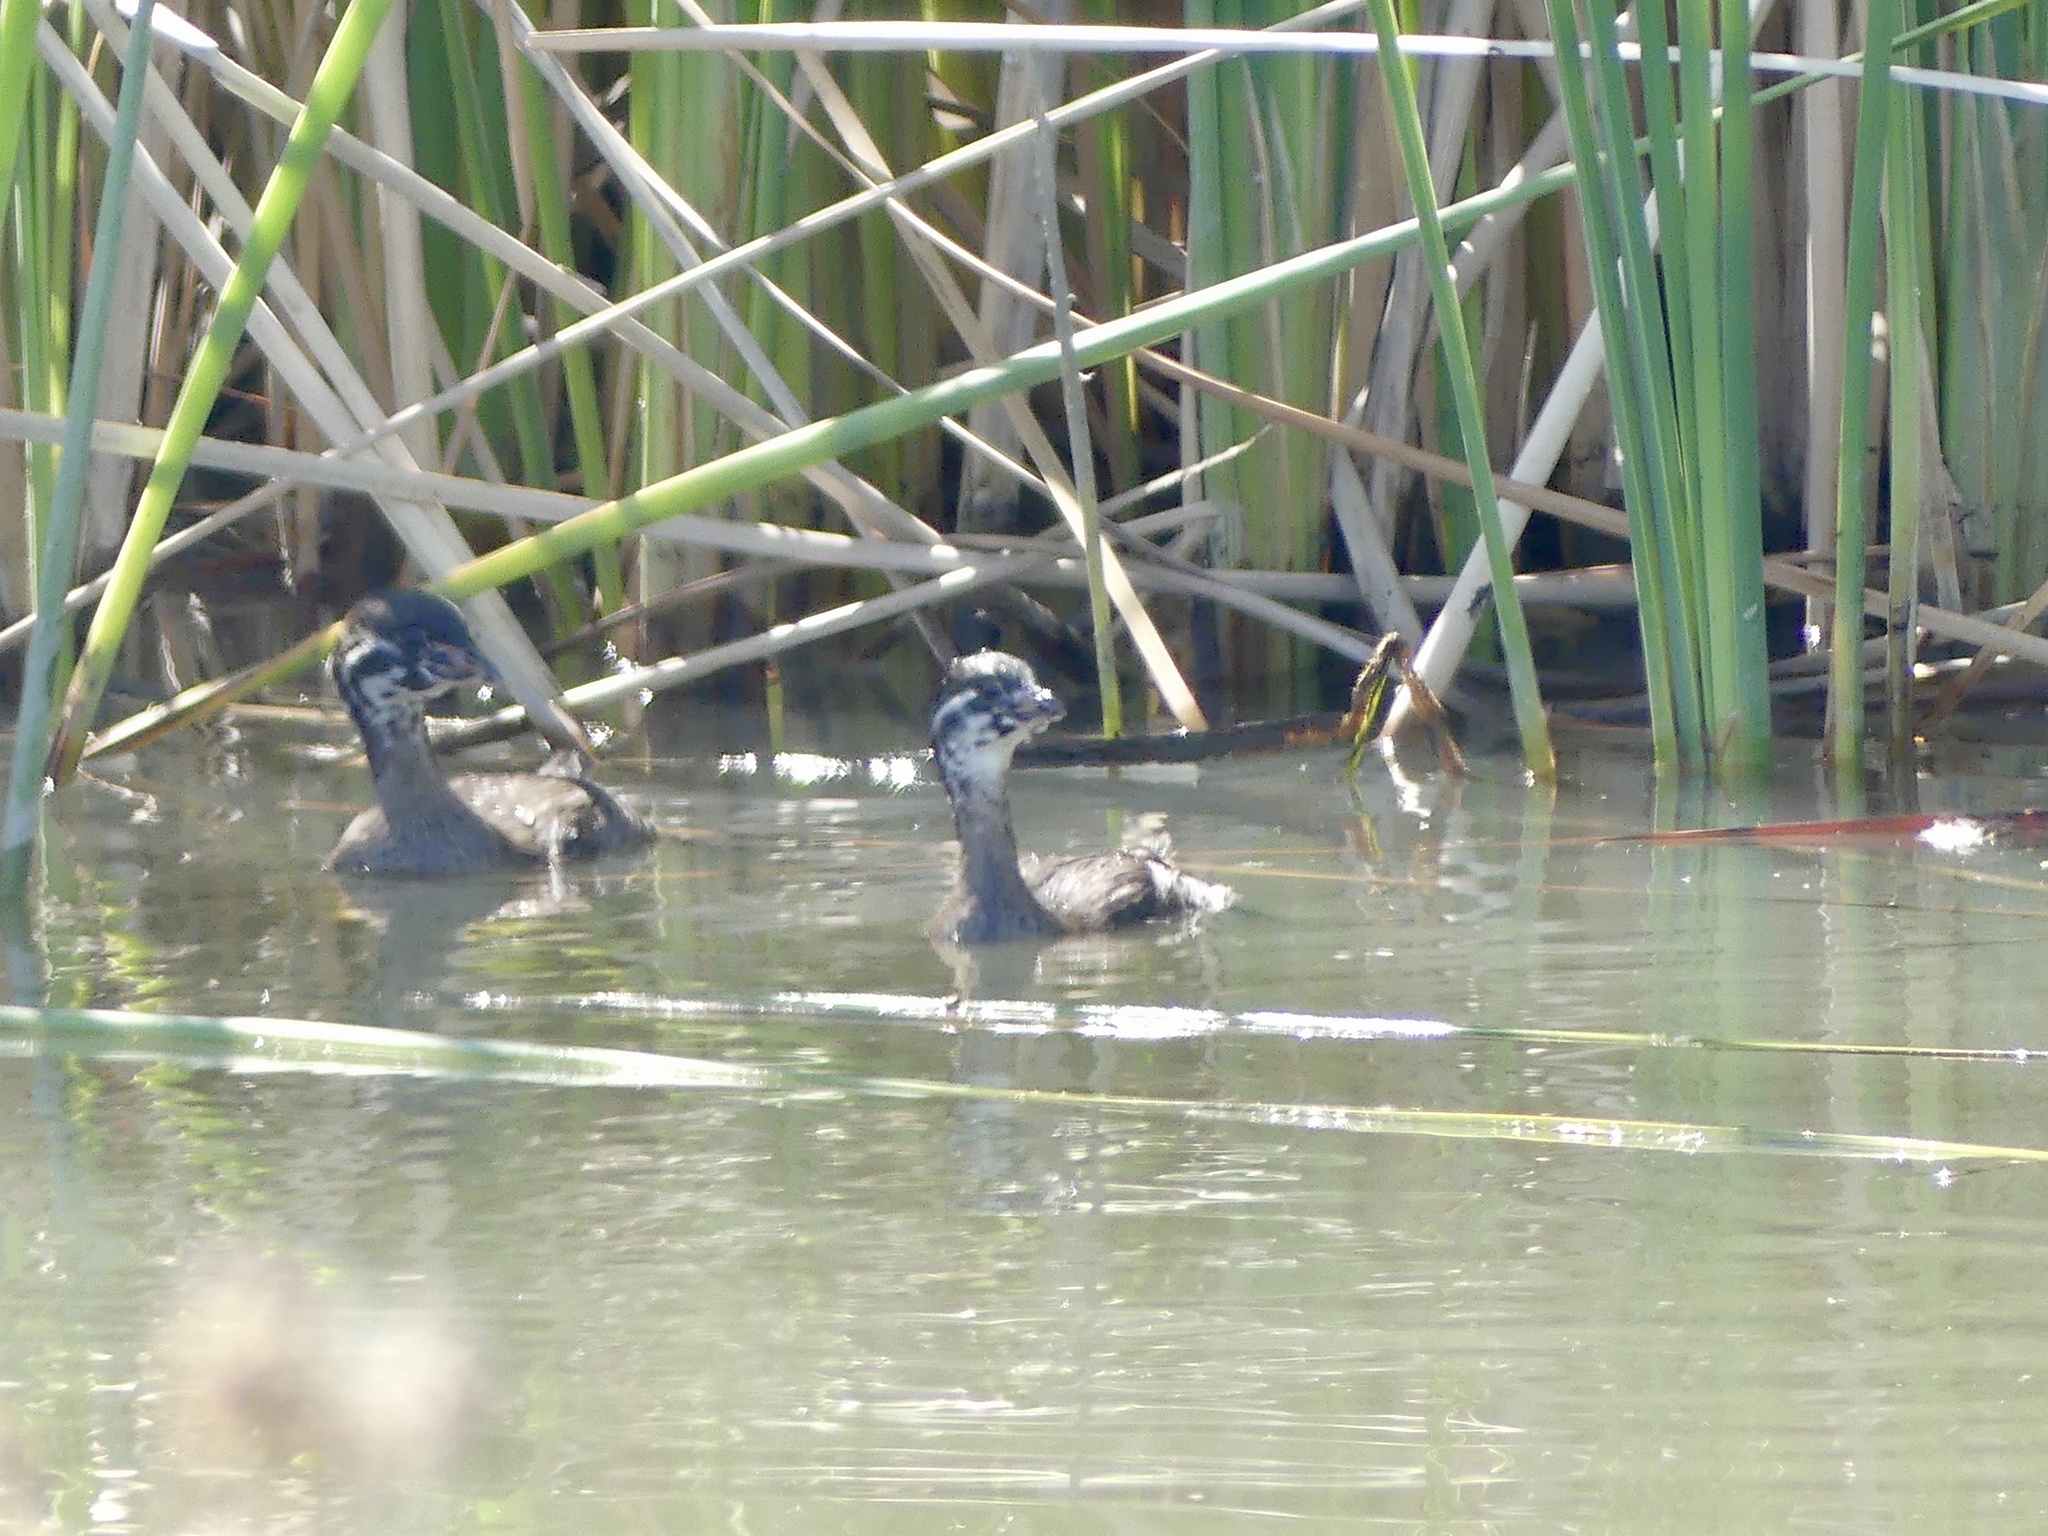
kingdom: Animalia
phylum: Chordata
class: Aves
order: Podicipediformes
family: Podicipedidae
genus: Podilymbus
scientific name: Podilymbus podiceps
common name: Pied-billed grebe
